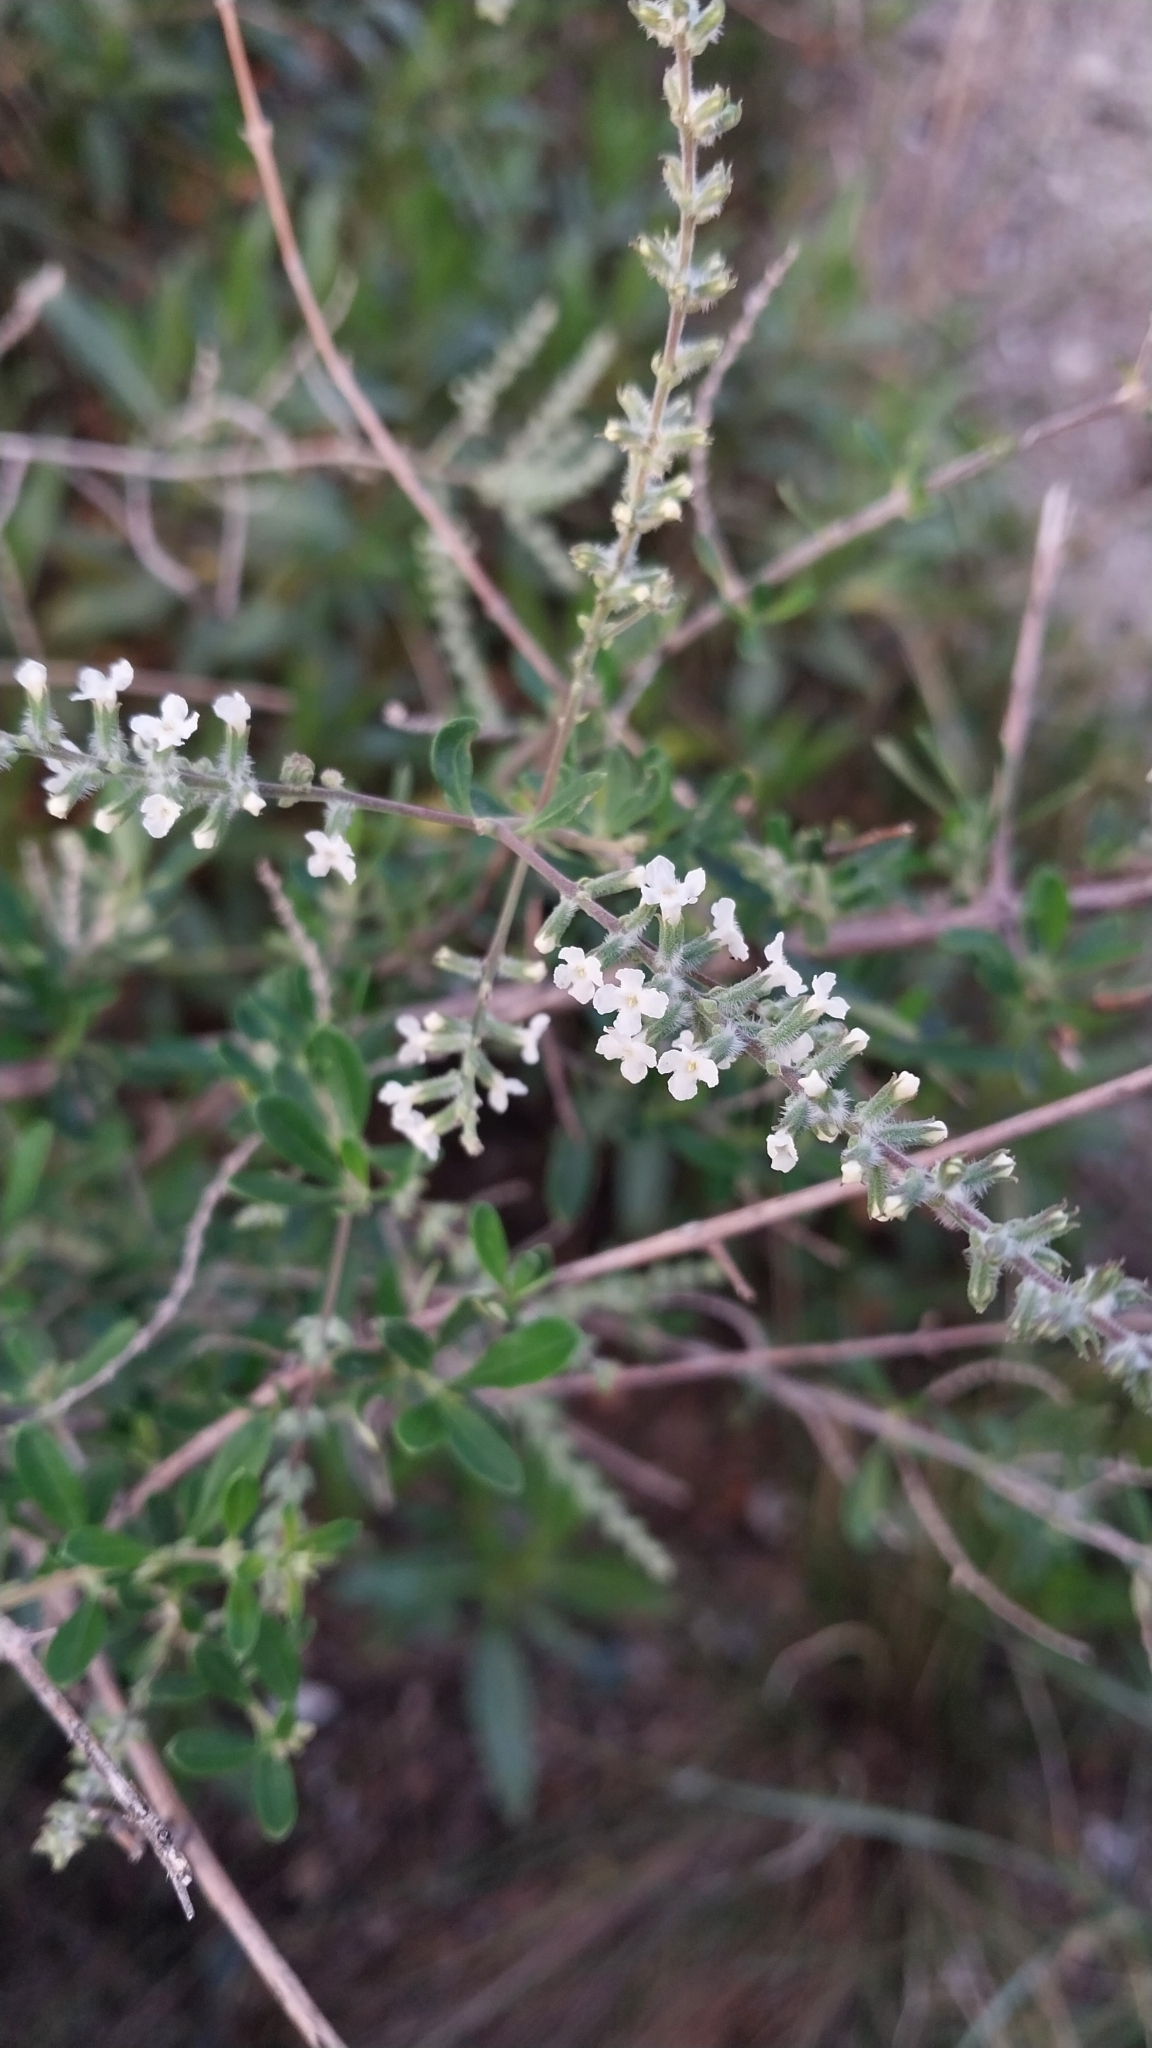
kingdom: Plantae
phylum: Tracheophyta
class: Magnoliopsida
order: Lamiales
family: Verbenaceae
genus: Aloysia
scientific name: Aloysia gratissima
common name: Common bee-brush
